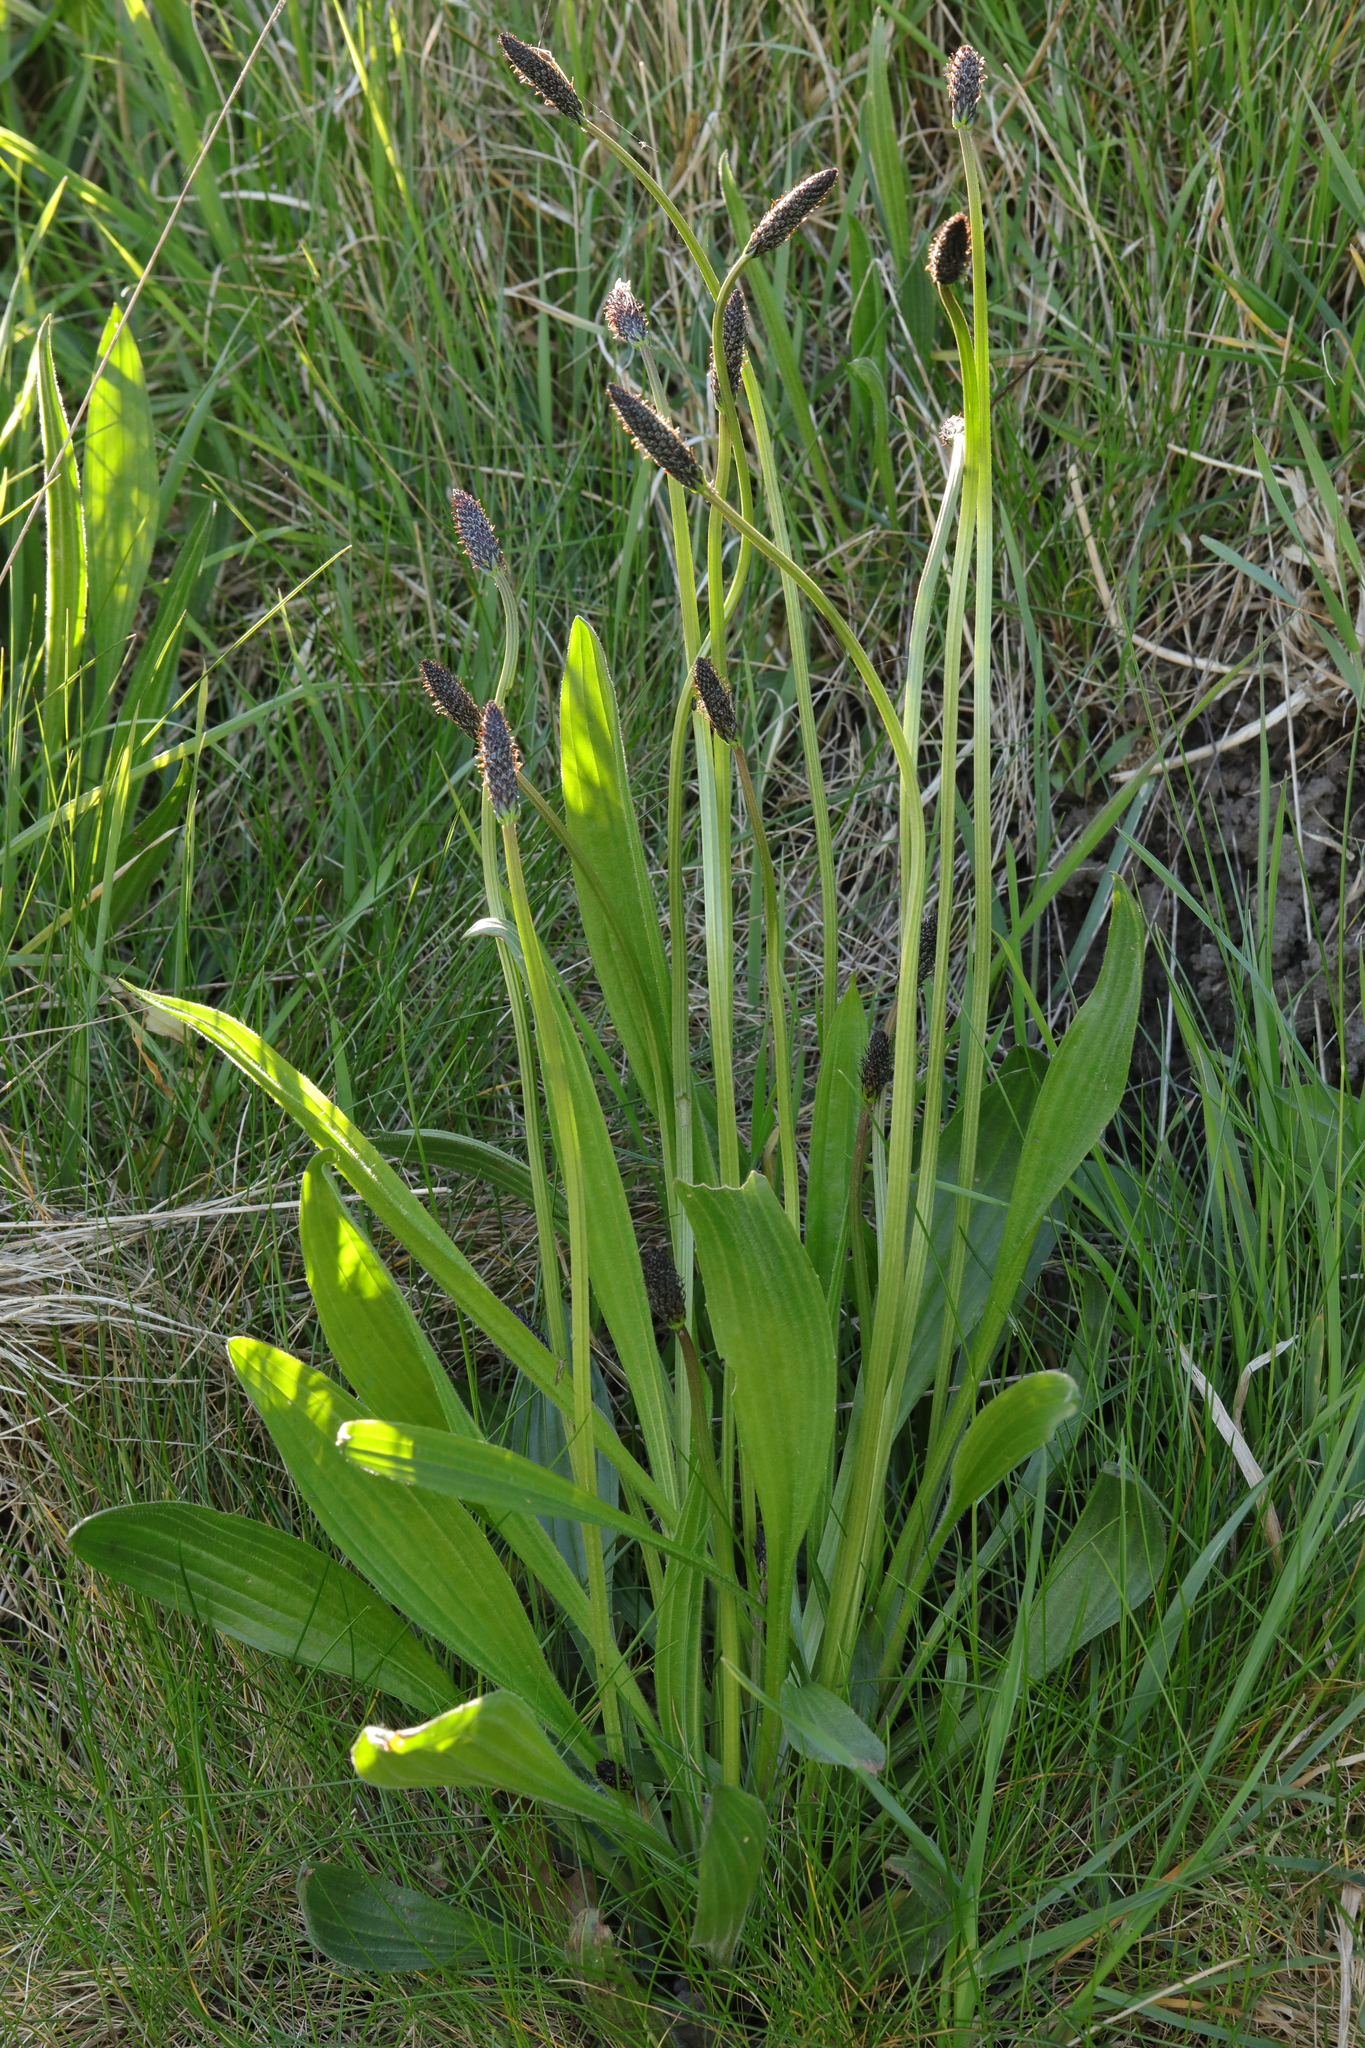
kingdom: Plantae
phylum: Tracheophyta
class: Magnoliopsida
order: Lamiales
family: Plantaginaceae
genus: Plantago
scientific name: Plantago lanceolata
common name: Ribwort plantain
